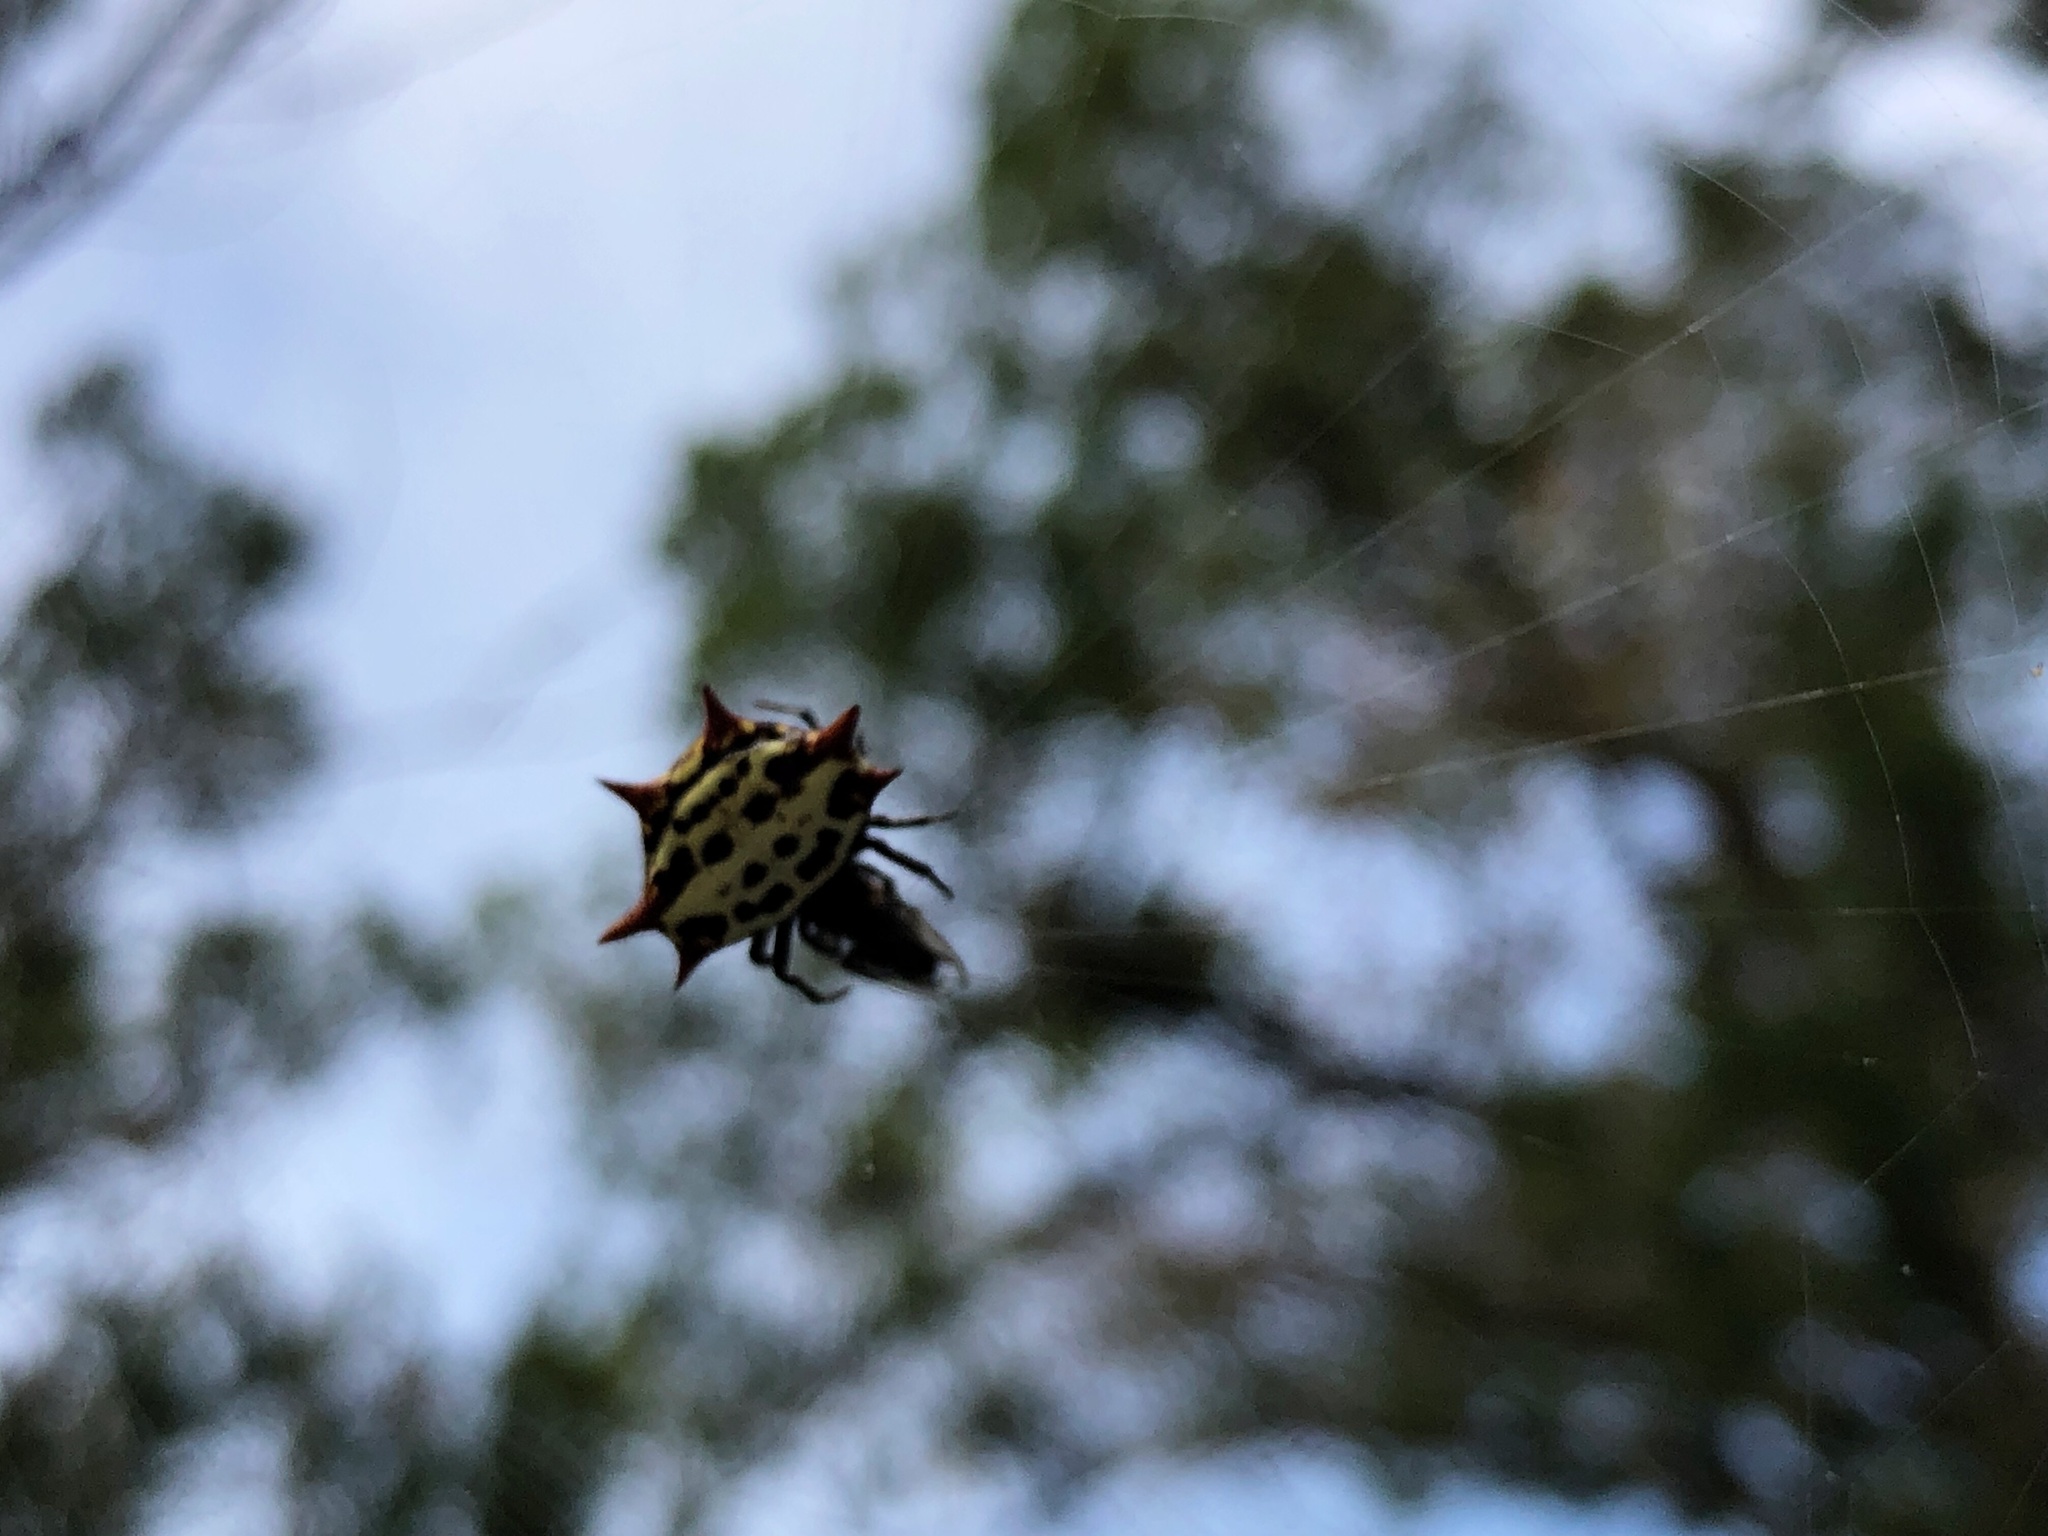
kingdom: Animalia
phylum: Arthropoda
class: Arachnida
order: Araneae
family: Araneidae
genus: Gasteracantha
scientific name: Gasteracantha cancriformis
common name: Orb weavers
